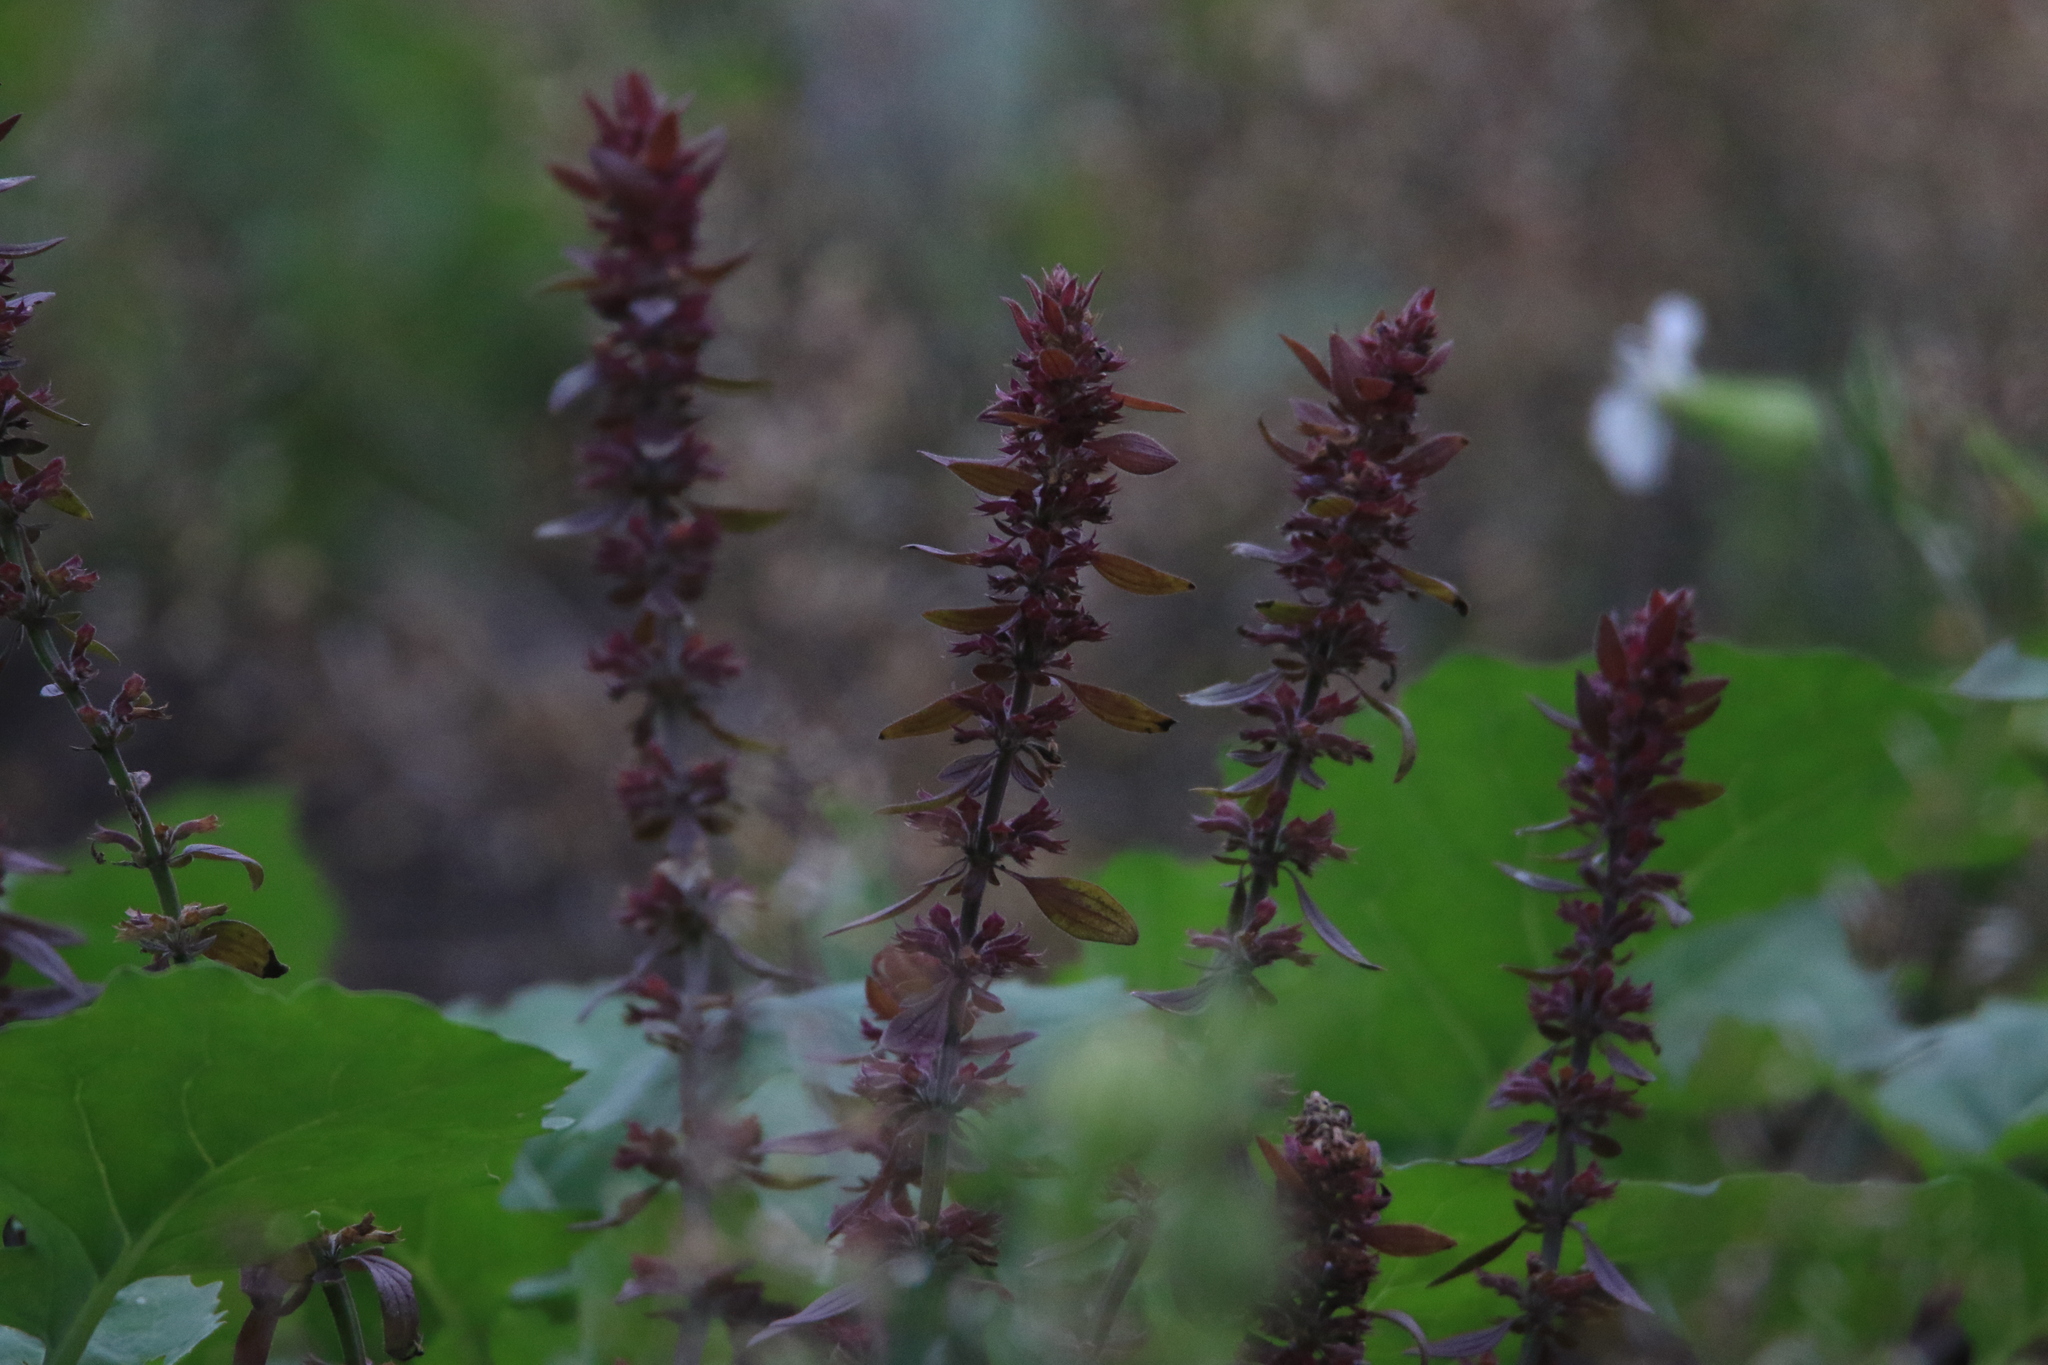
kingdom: Plantae
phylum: Tracheophyta
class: Magnoliopsida
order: Lamiales
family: Lamiaceae
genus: Dracocephalum
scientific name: Dracocephalum nutans
